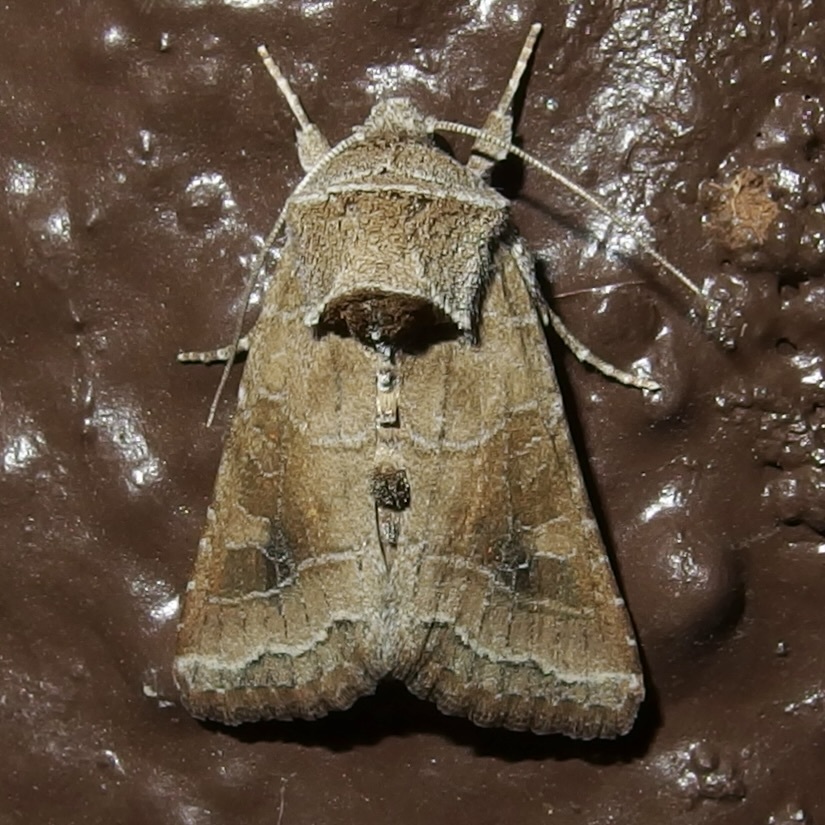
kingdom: Animalia
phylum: Arthropoda
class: Insecta
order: Lepidoptera
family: Noctuidae
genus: Lacinipolia
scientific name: Lacinipolia triplehorni
